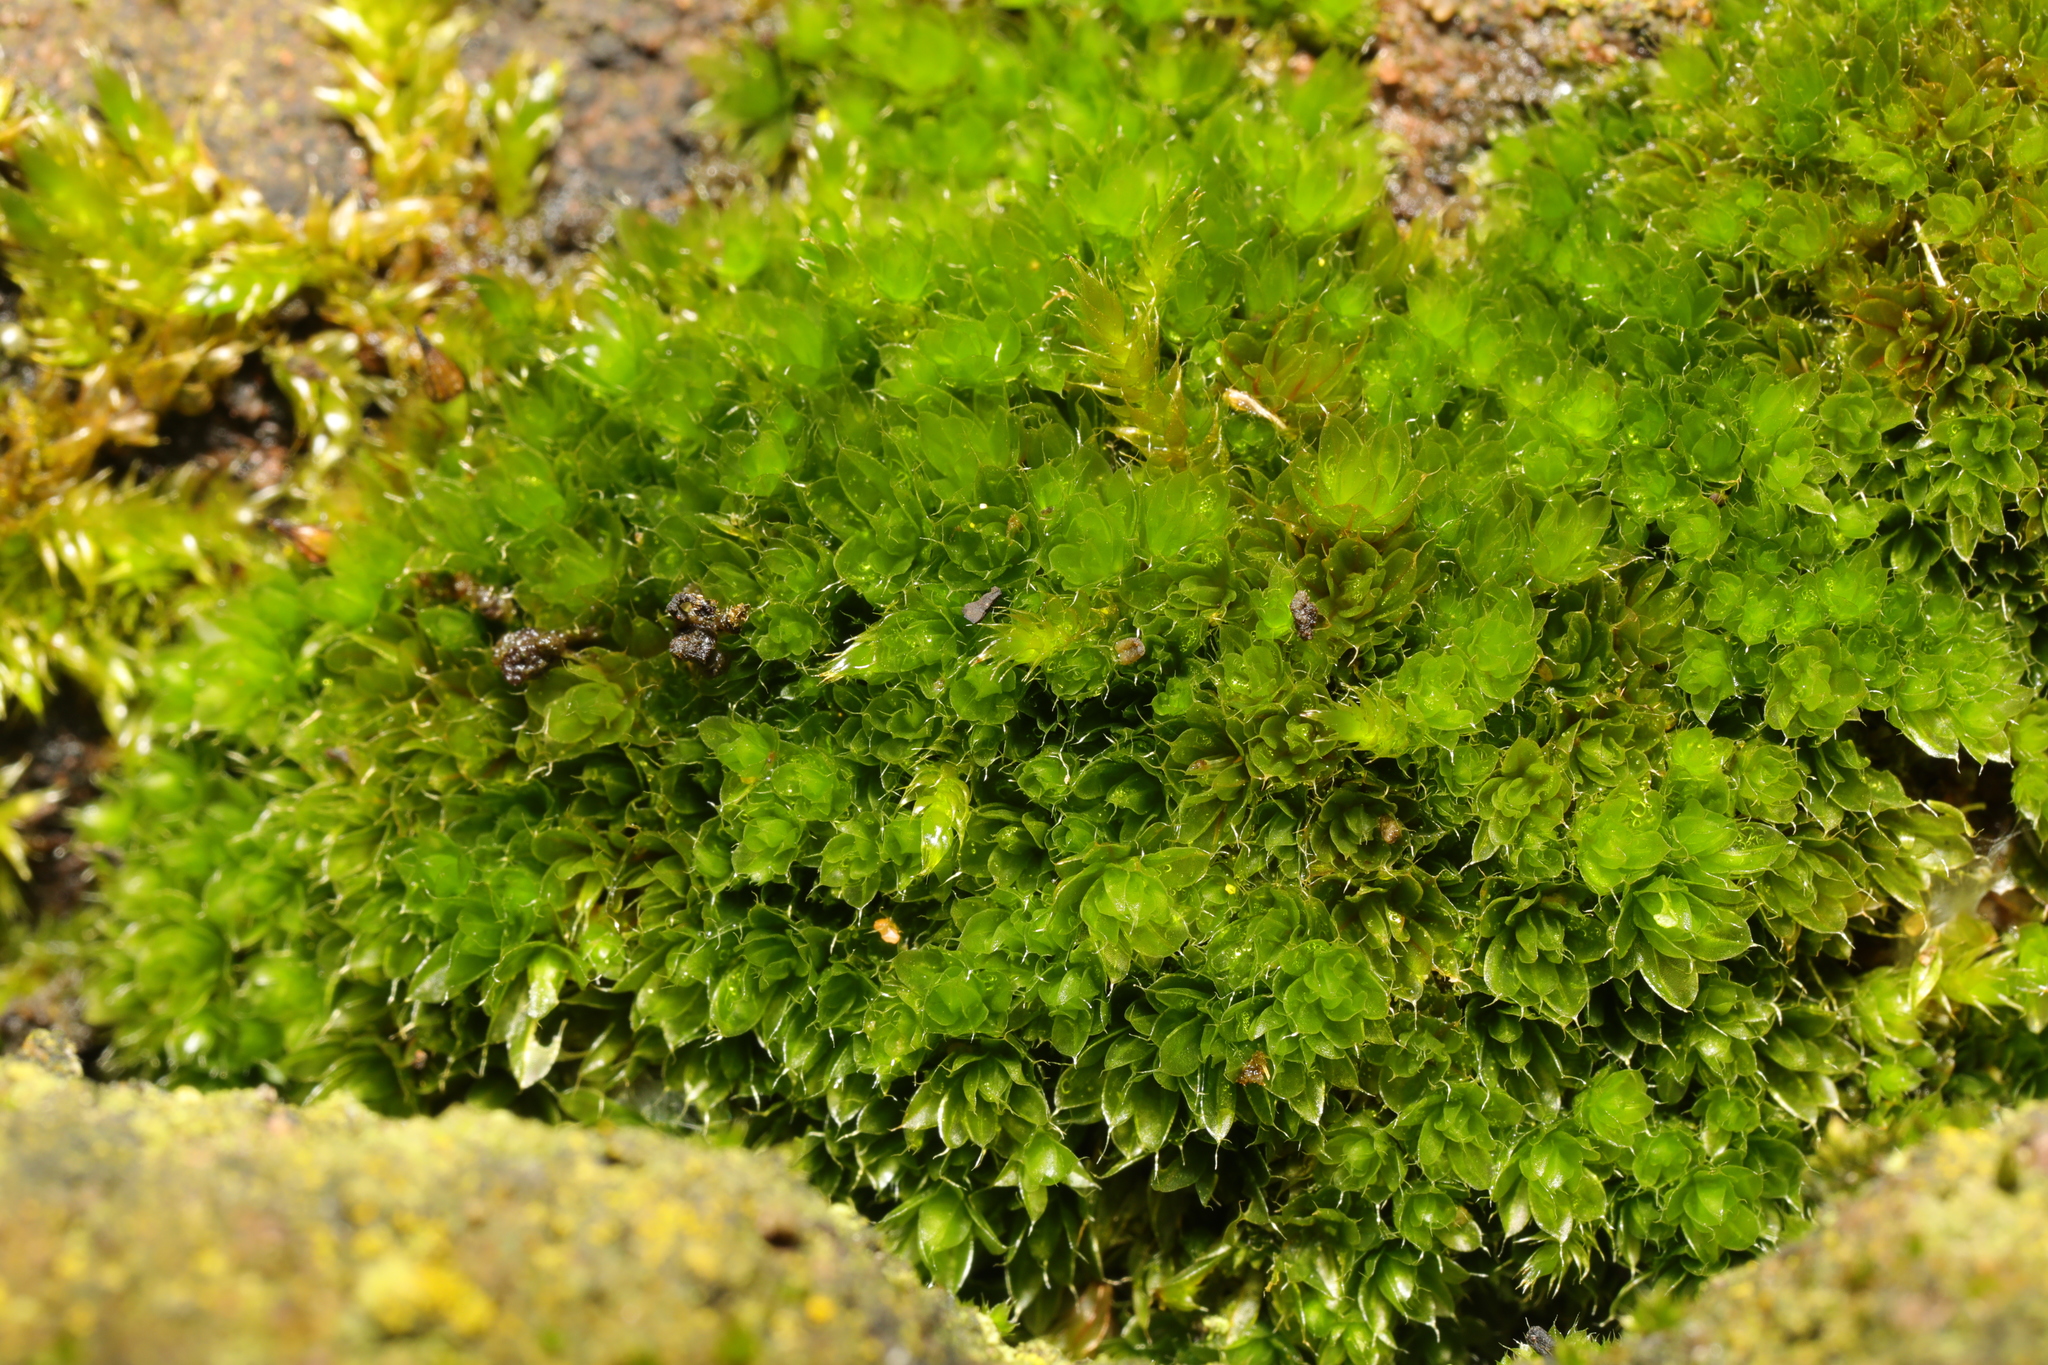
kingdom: Plantae
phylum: Bryophyta
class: Bryopsida
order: Bryales
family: Bryaceae
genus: Rosulabryum
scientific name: Rosulabryum capillare
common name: Capillary thread-moss
